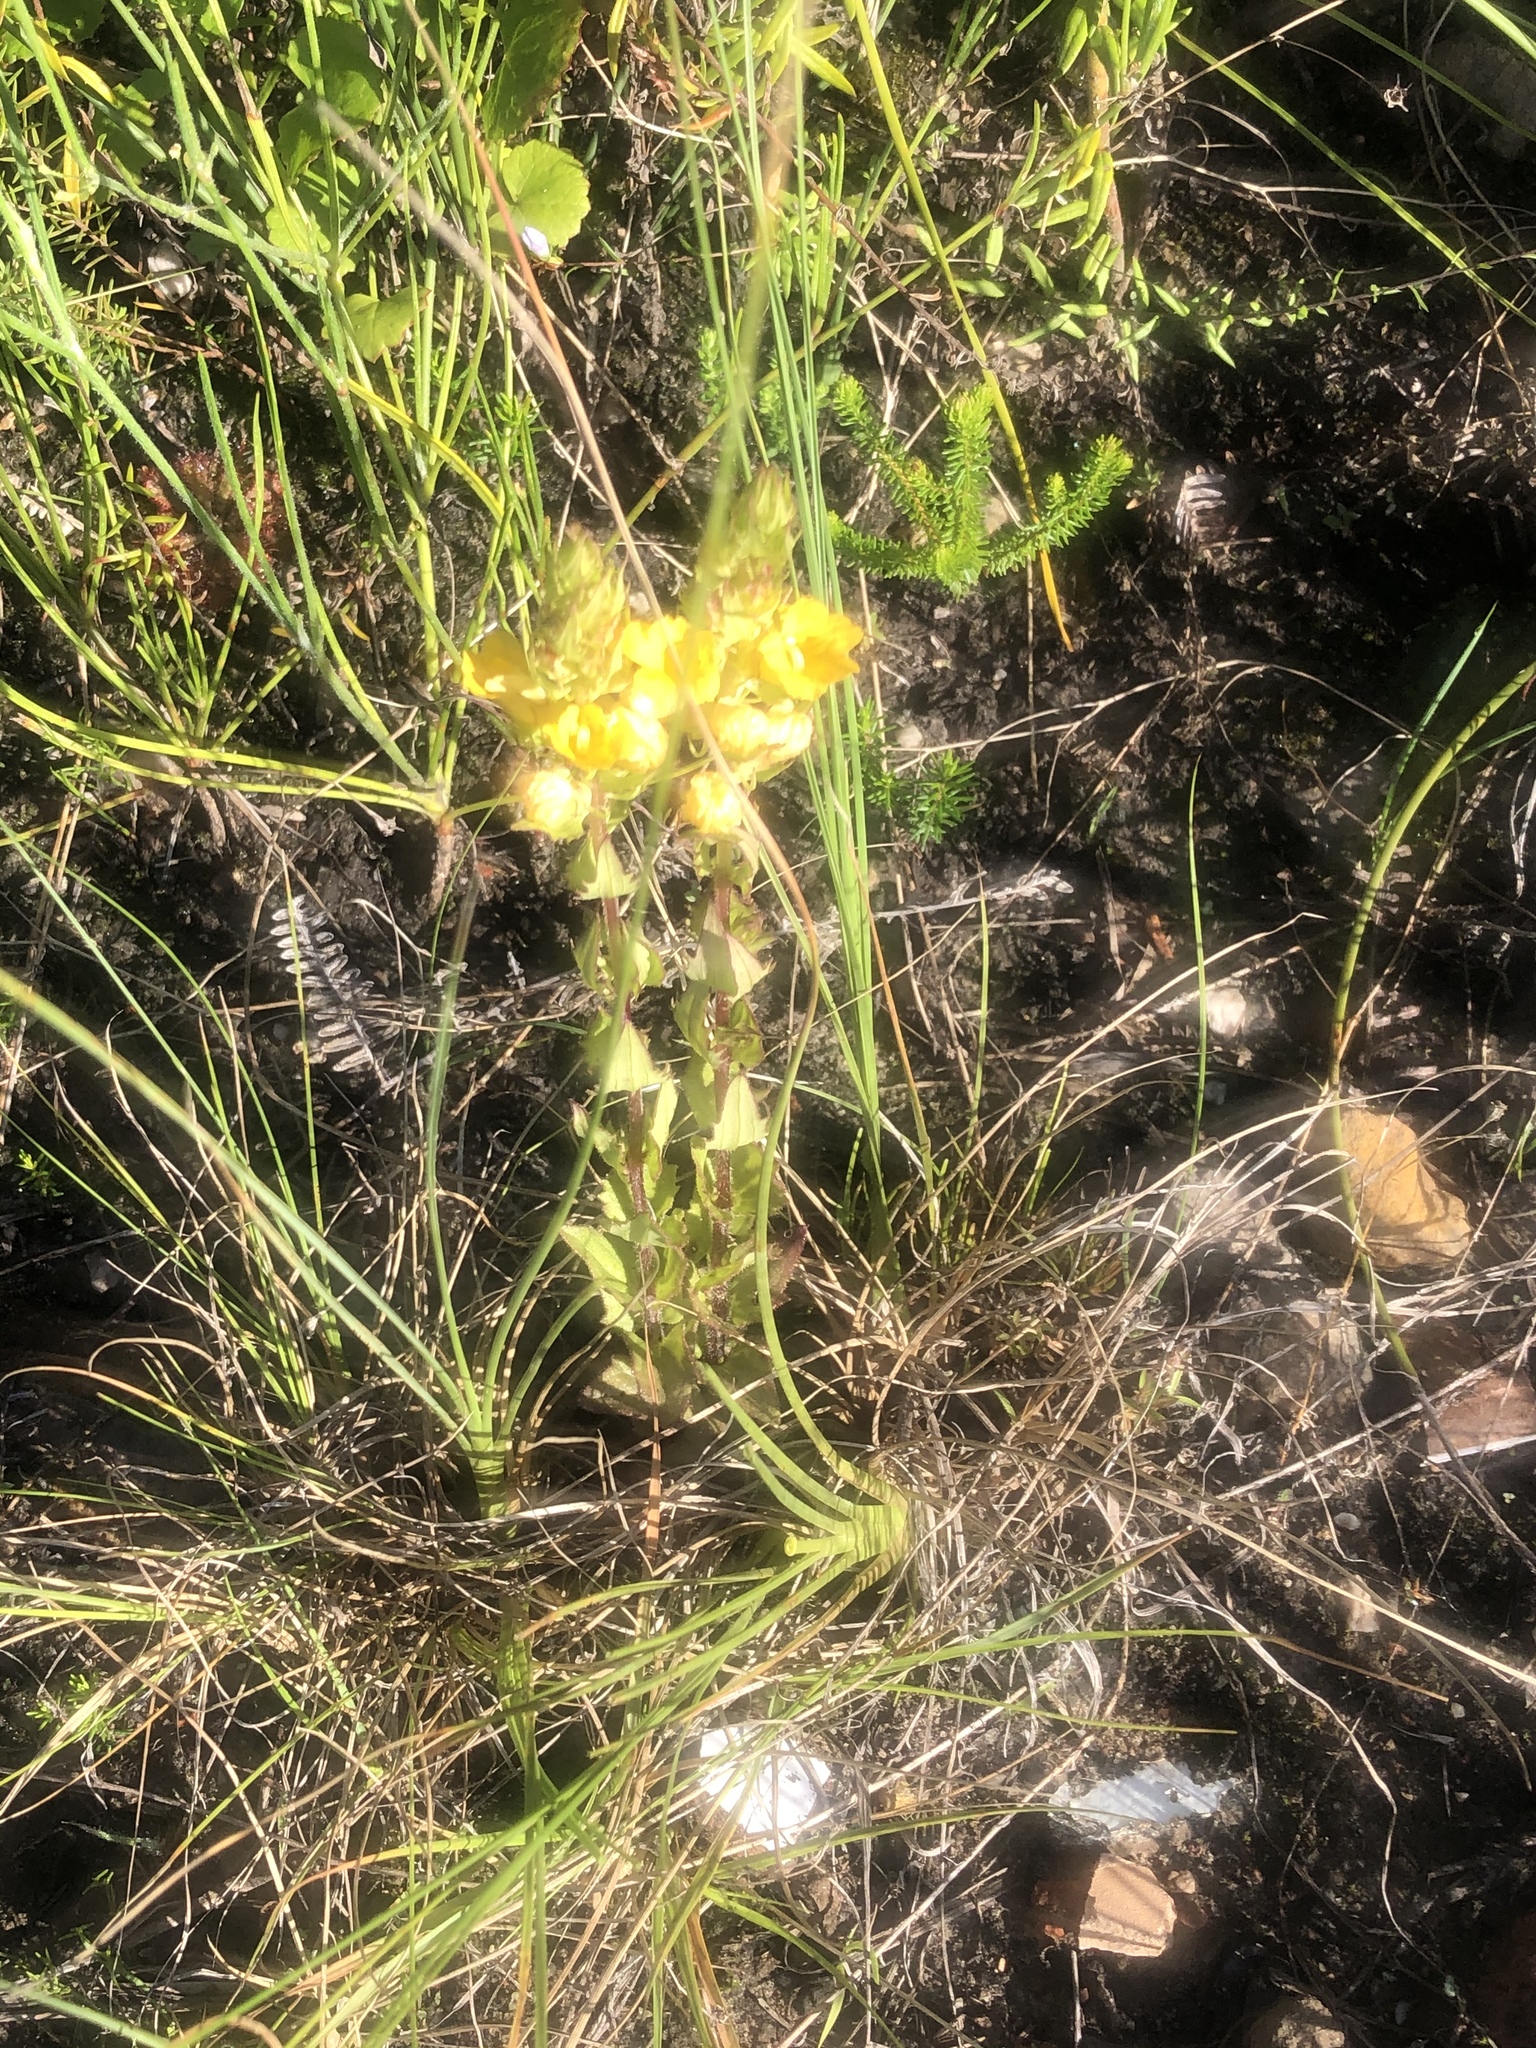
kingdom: Plantae
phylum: Tracheophyta
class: Magnoliopsida
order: Lamiales
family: Orobanchaceae
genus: Alectra
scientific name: Alectra sessiliflora
